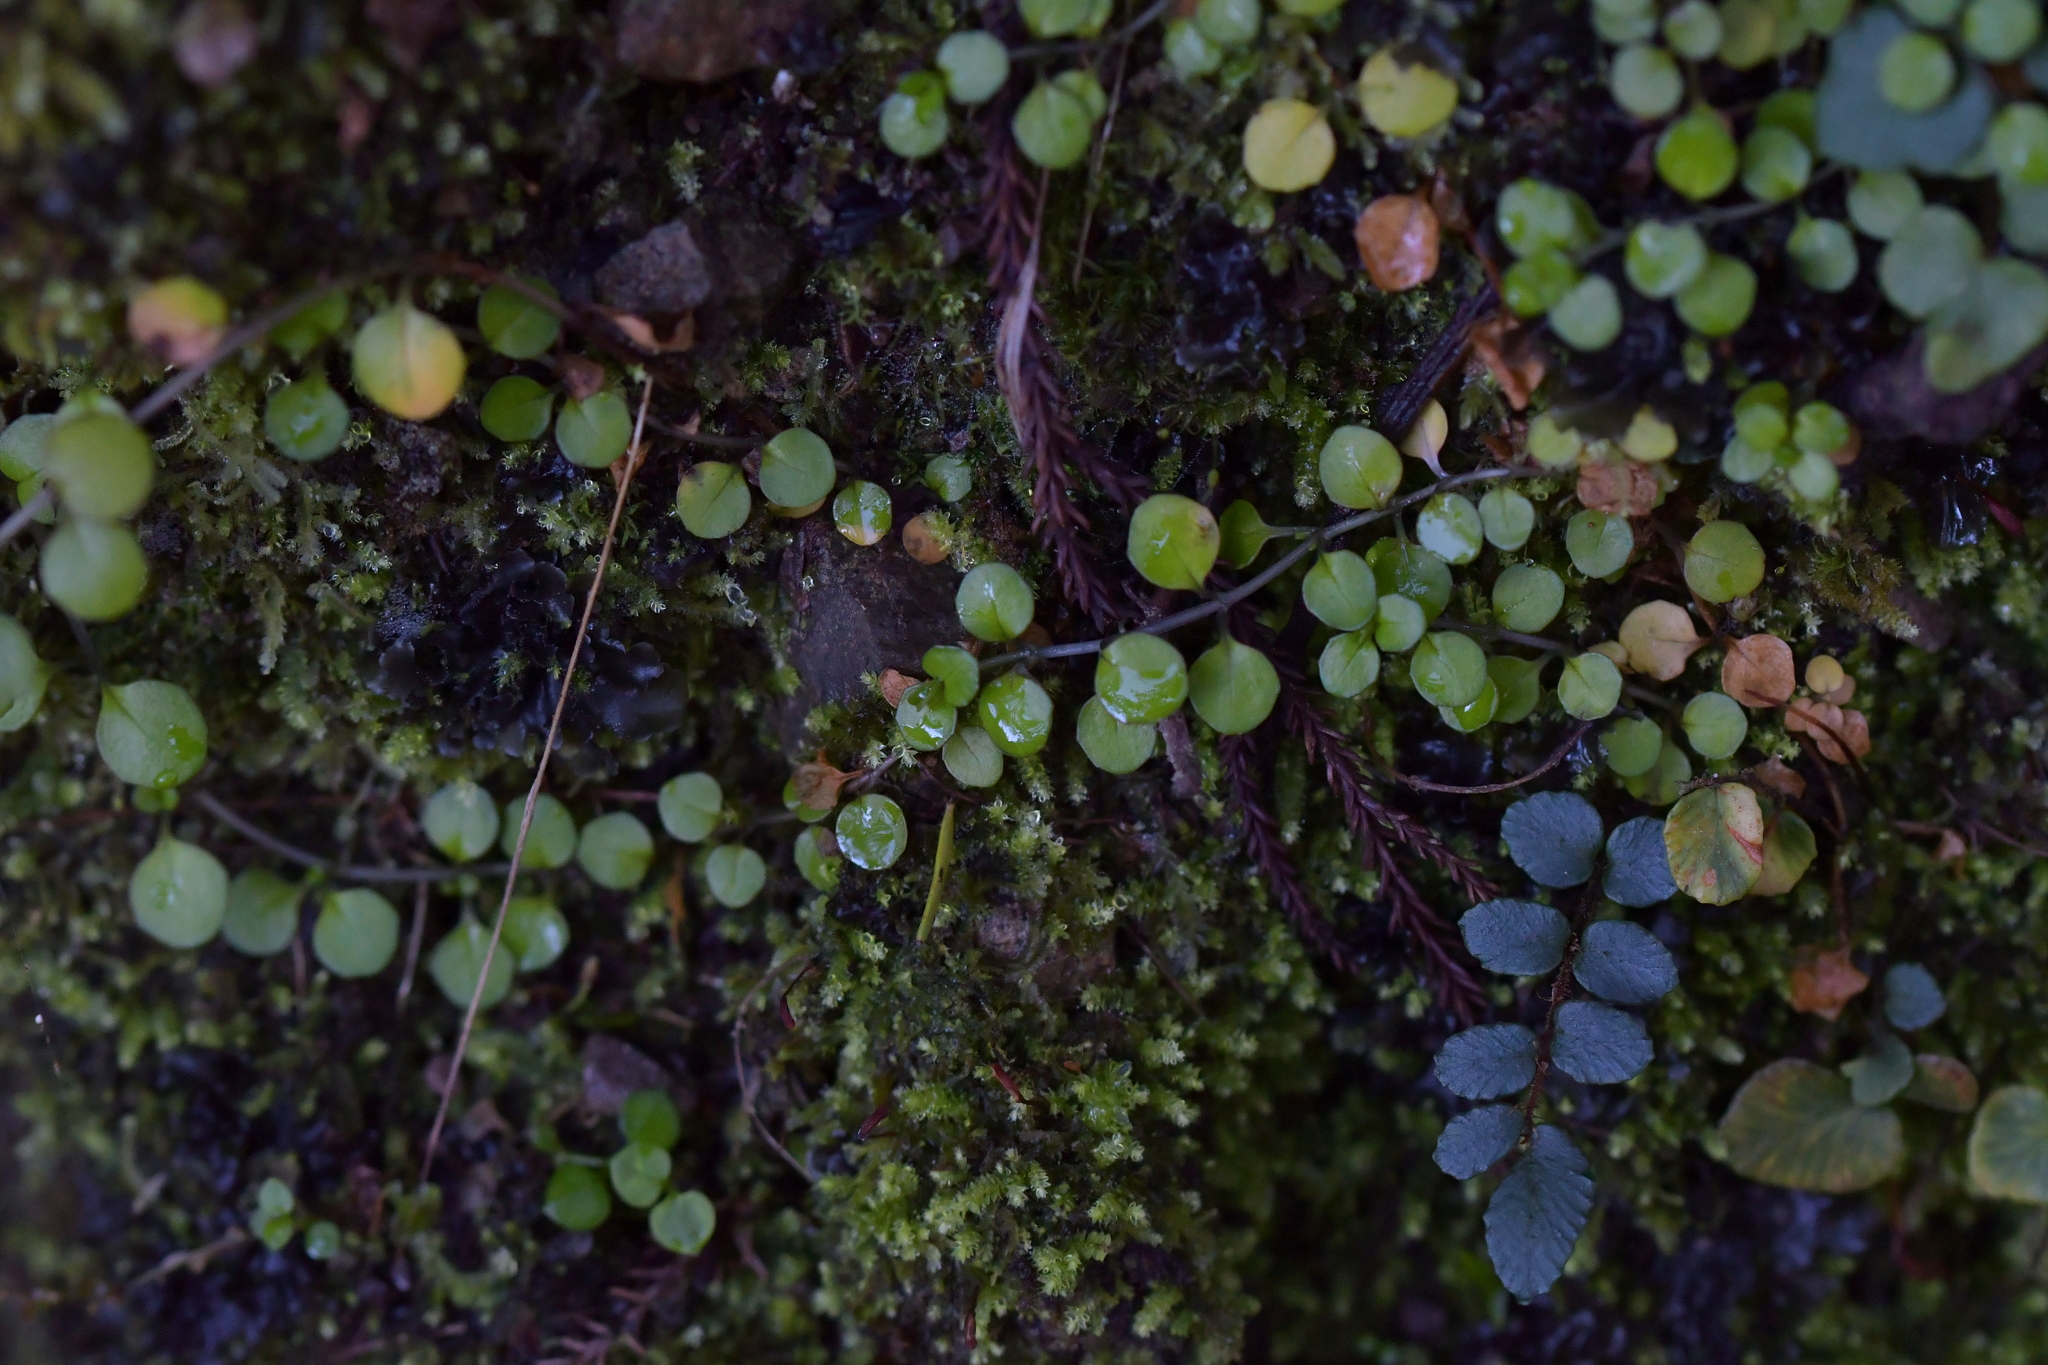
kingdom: Plantae
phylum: Tracheophyta
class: Magnoliopsida
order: Myrtales
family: Onagraceae
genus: Epilobium
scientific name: Epilobium nummularifolium
